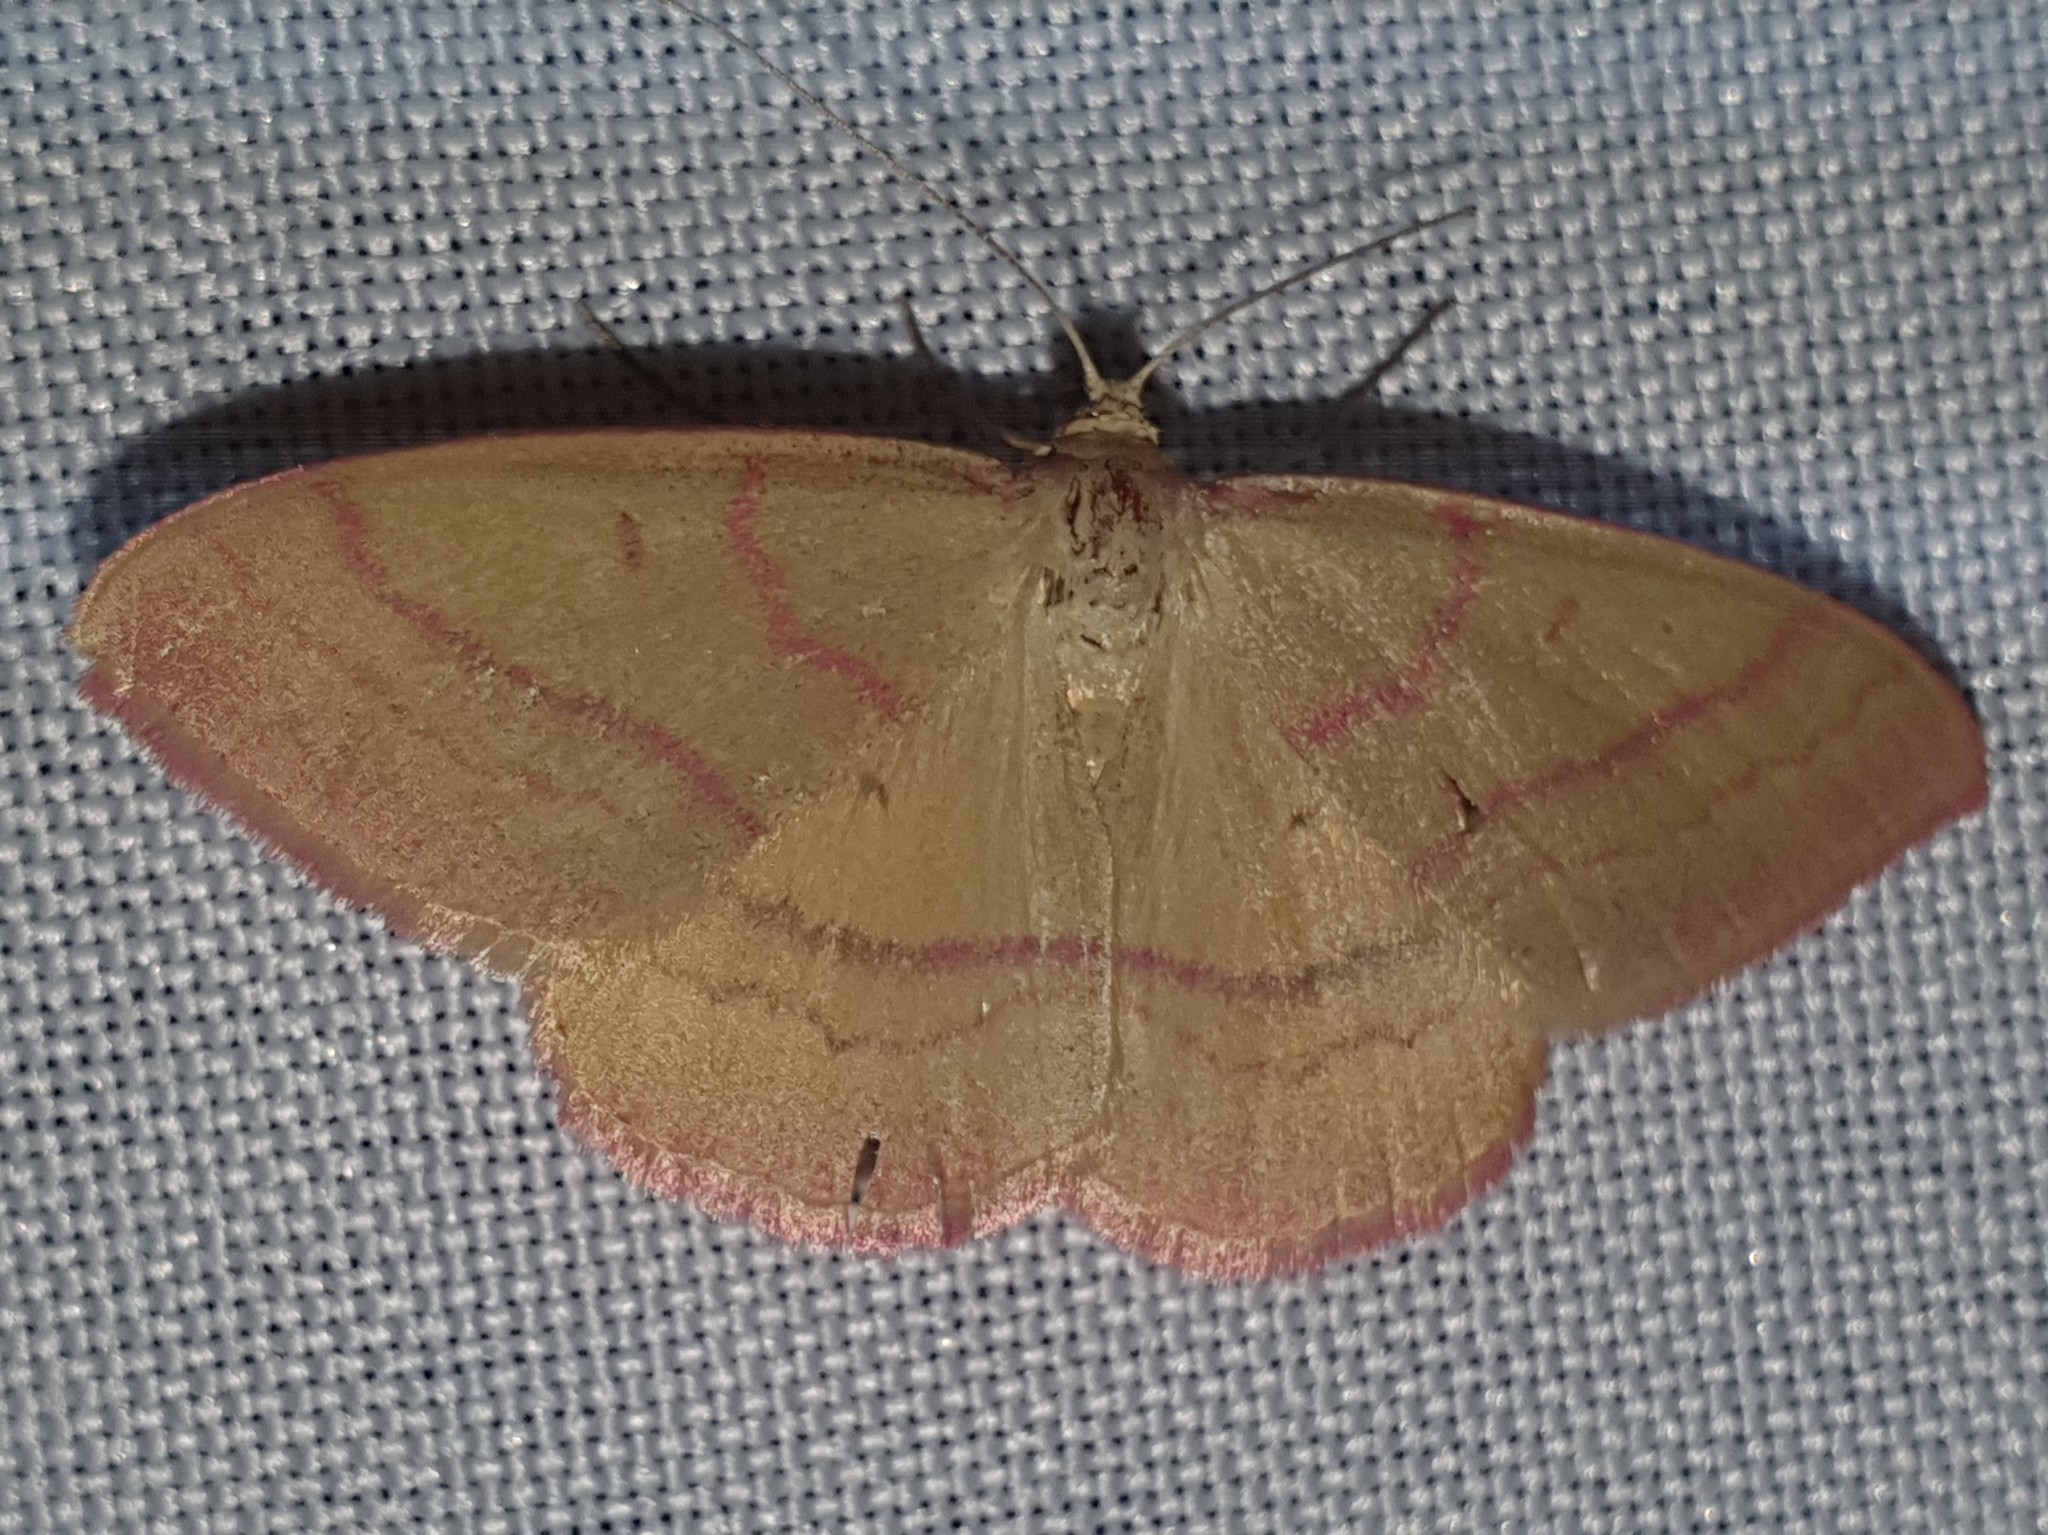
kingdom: Animalia
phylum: Arthropoda
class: Insecta
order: Lepidoptera
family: Geometridae
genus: Rhodostrophia
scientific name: Rhodostrophia calabra
